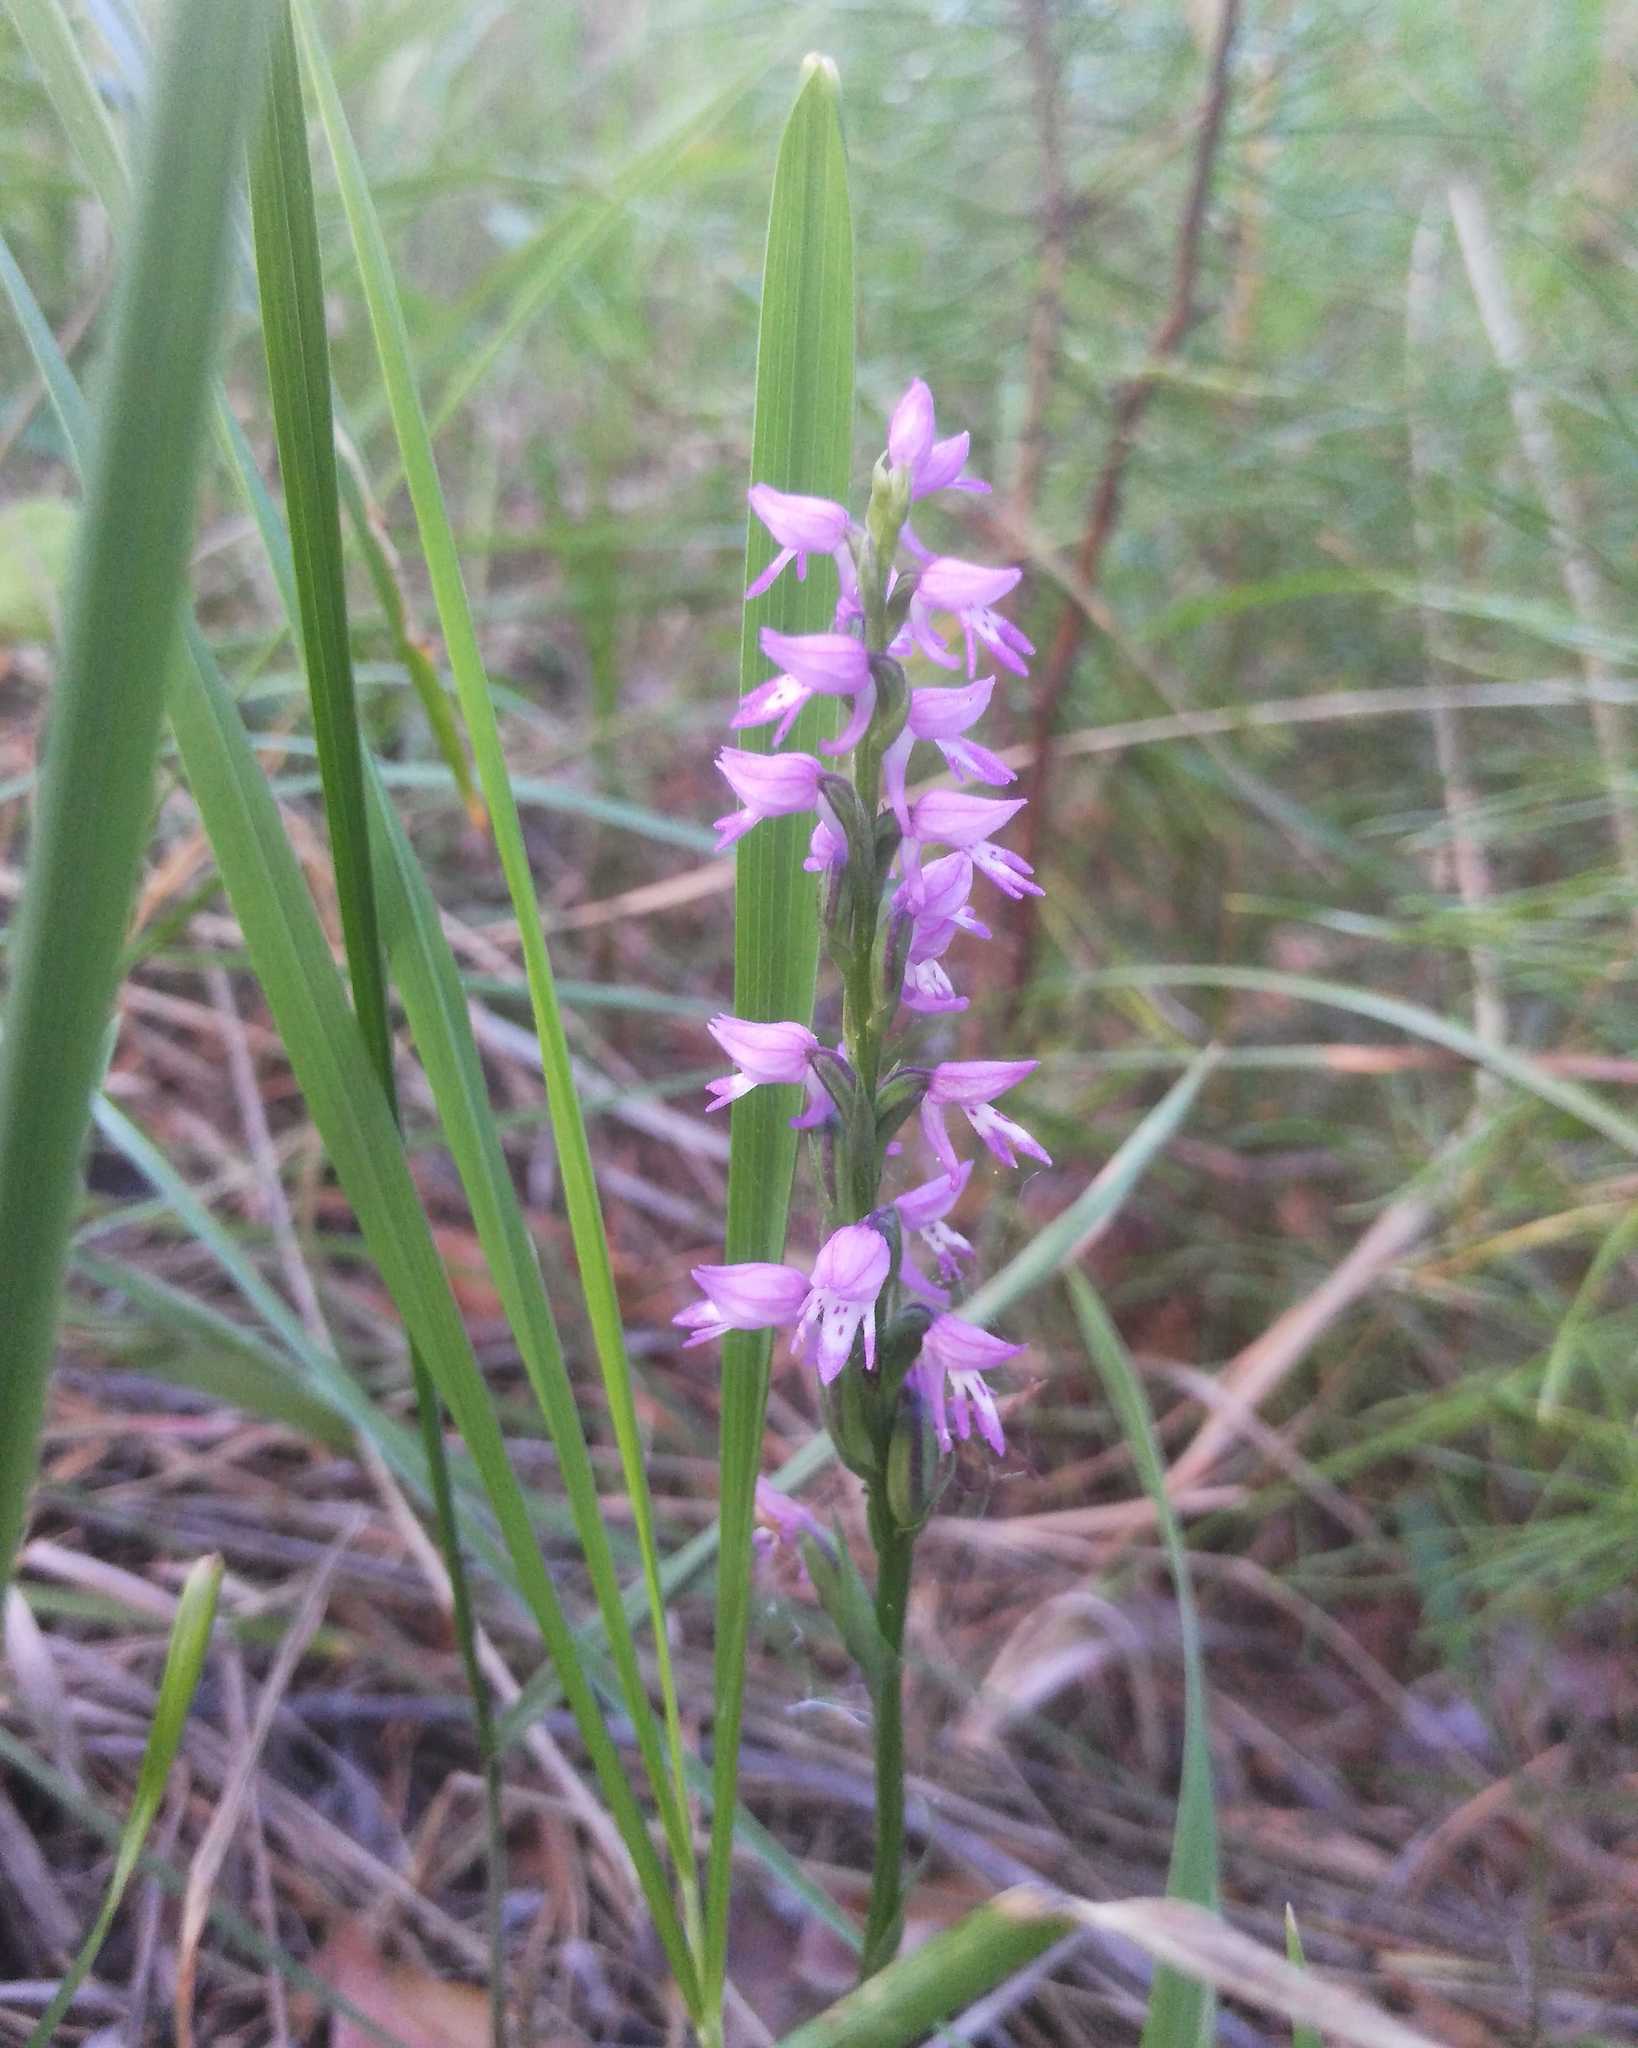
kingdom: Plantae
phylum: Tracheophyta
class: Liliopsida
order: Asparagales
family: Orchidaceae
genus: Hemipilia
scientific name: Hemipilia cucullata
